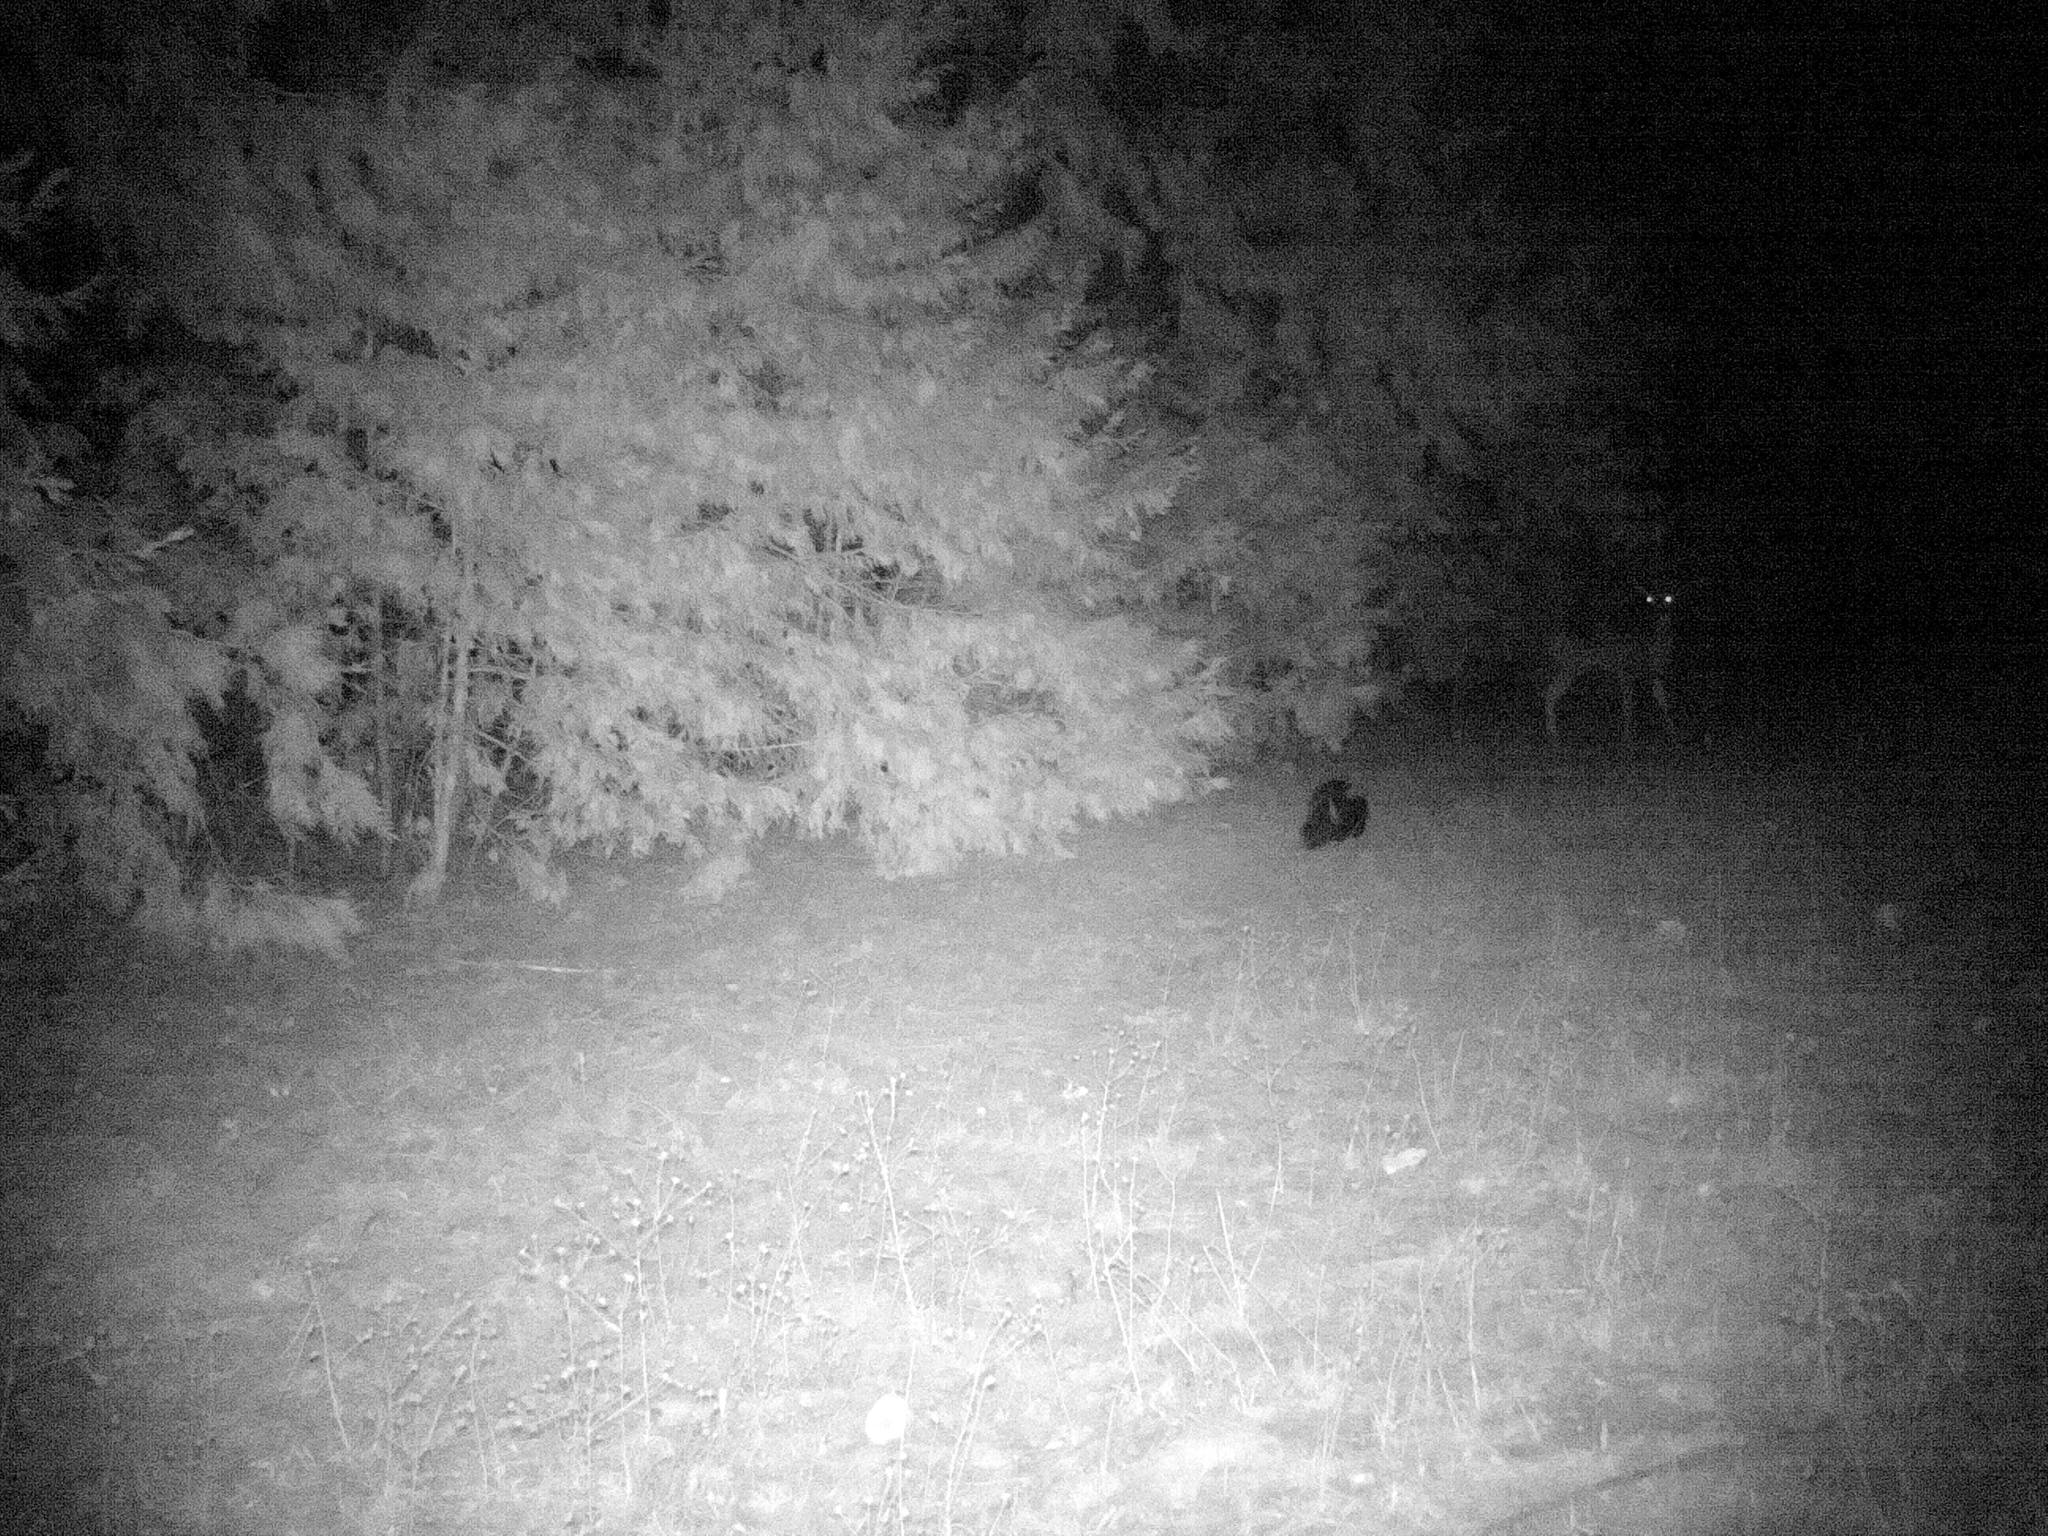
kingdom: Animalia
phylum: Chordata
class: Mammalia
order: Carnivora
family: Mephitidae
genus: Mephitis
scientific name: Mephitis mephitis
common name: Striped skunk
